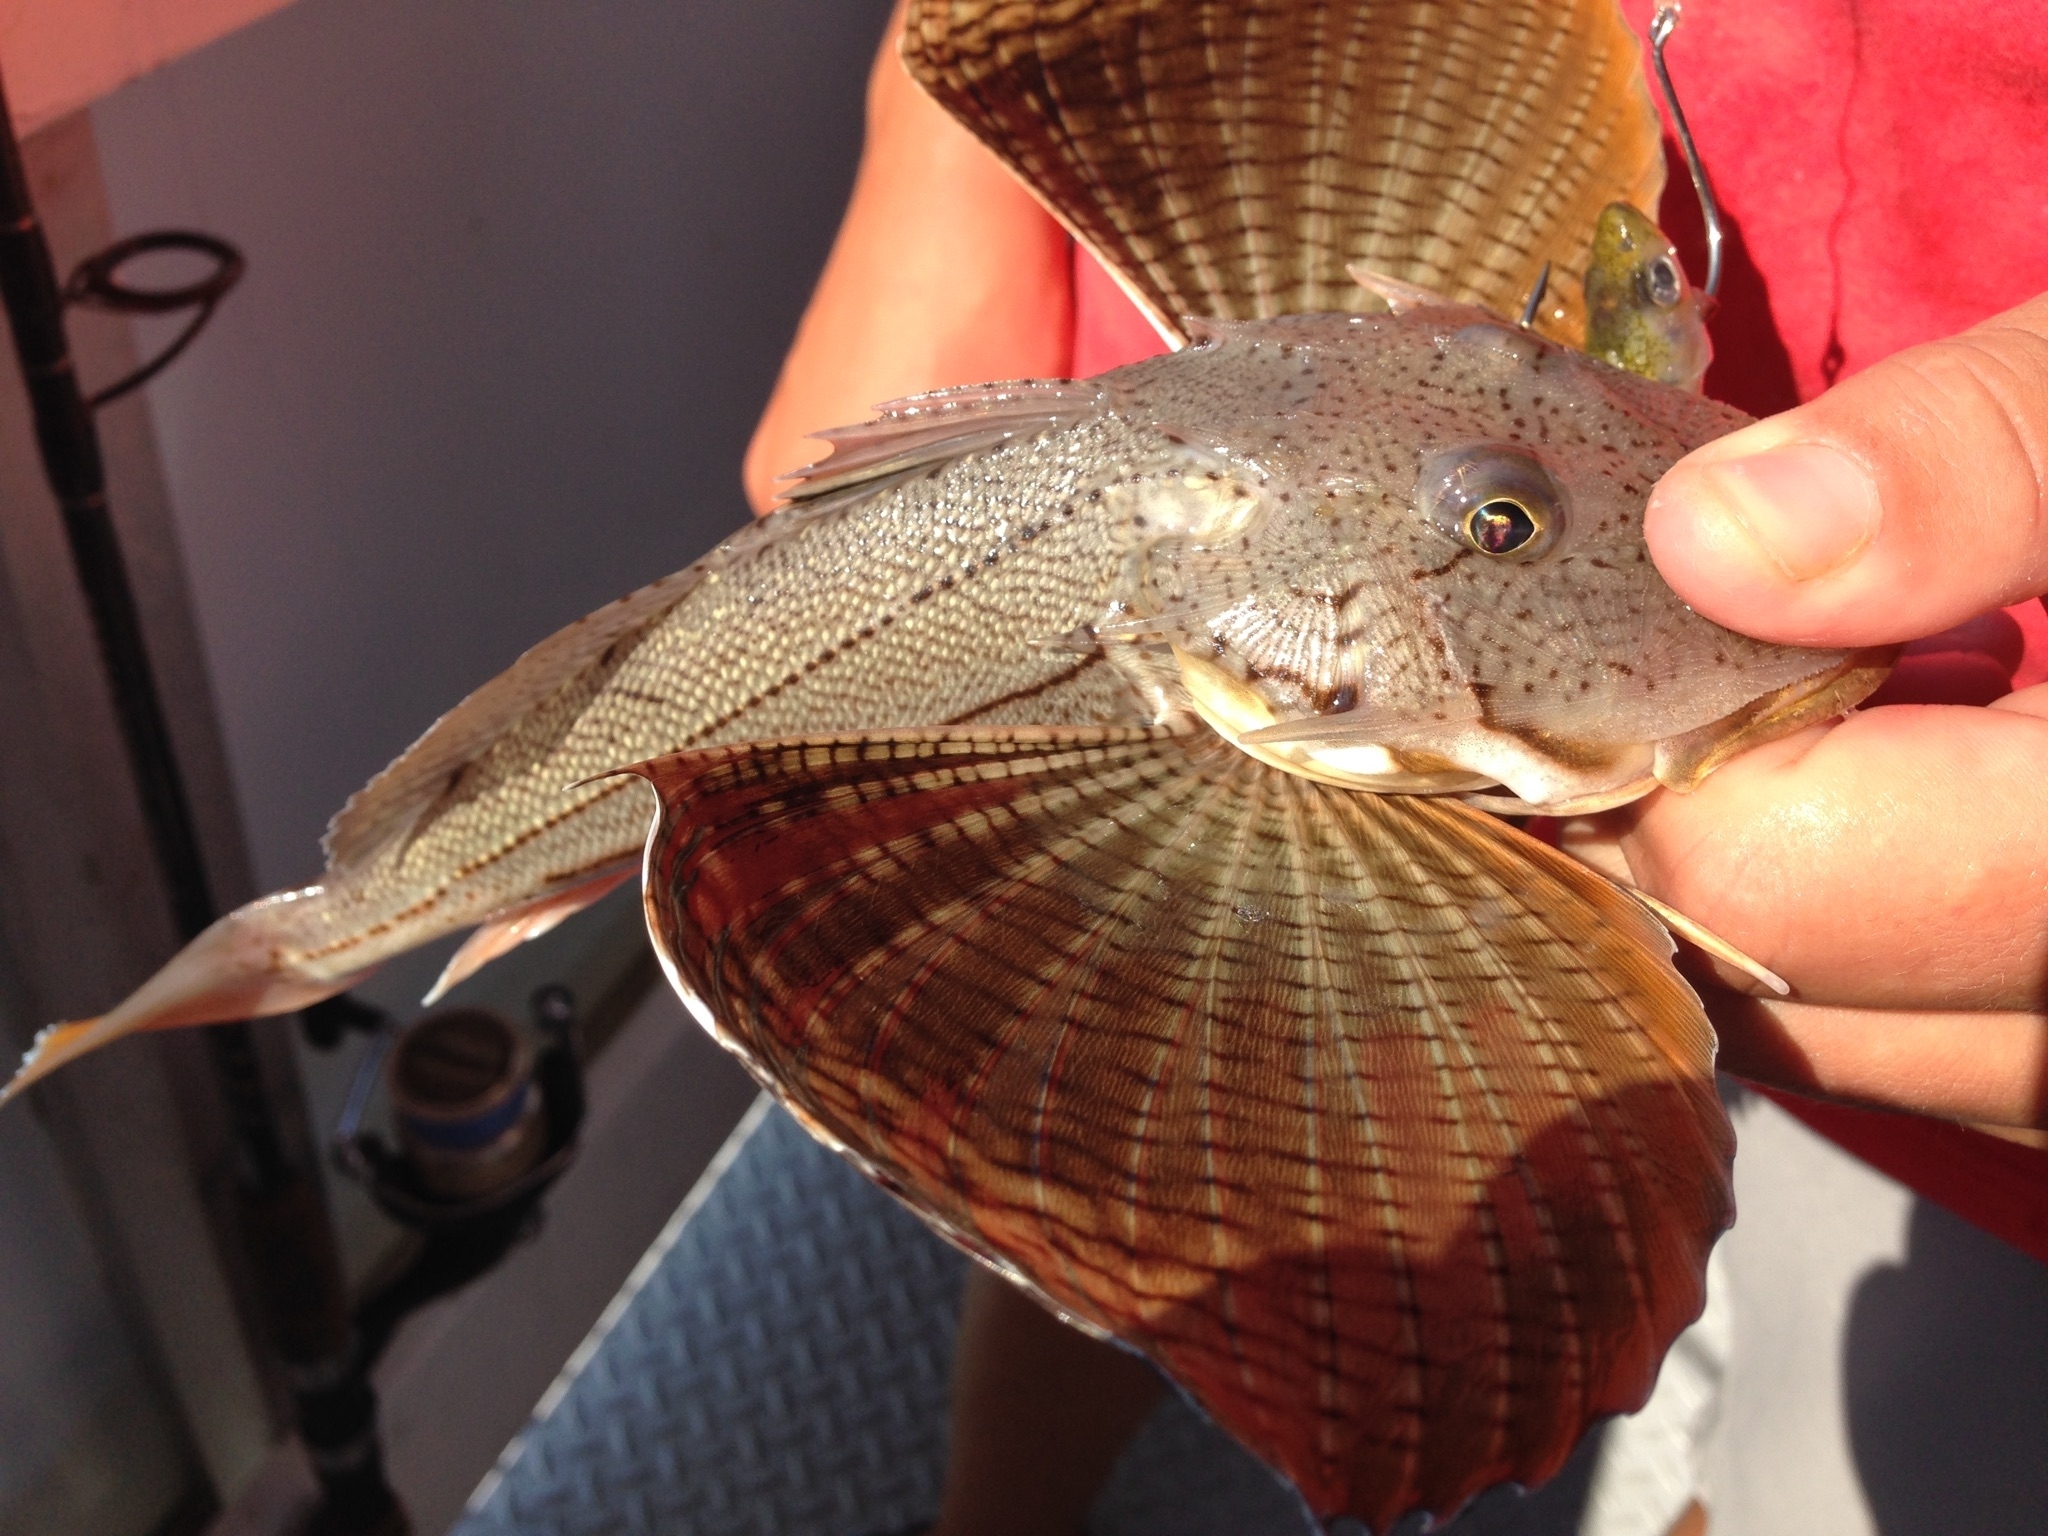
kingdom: Animalia
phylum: Chordata
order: Scorpaeniformes
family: Triglidae
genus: Prionotus
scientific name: Prionotus evolans
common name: Striped searobin
